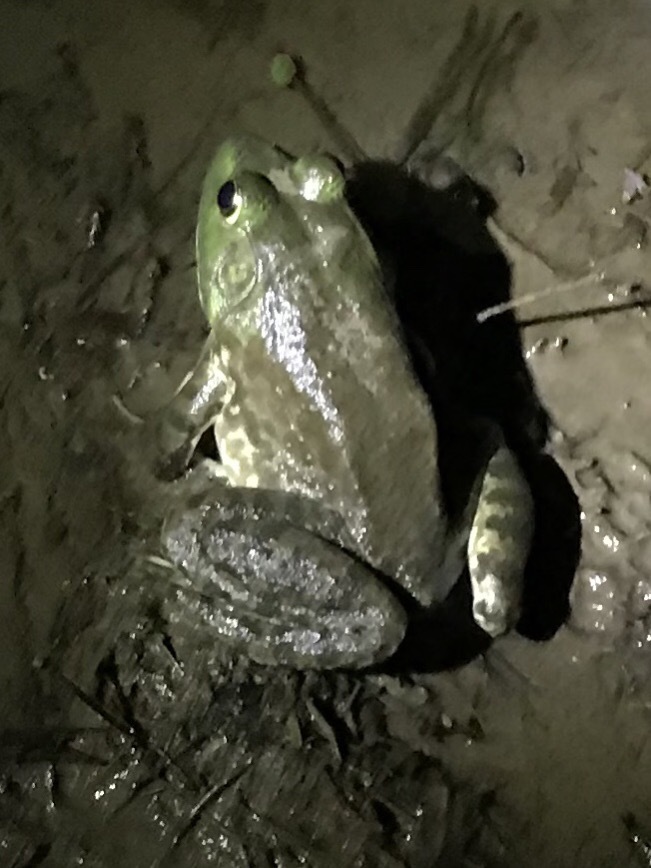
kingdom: Animalia
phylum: Chordata
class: Amphibia
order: Anura
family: Ranidae
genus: Lithobates
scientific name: Lithobates catesbeianus
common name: American bullfrog
